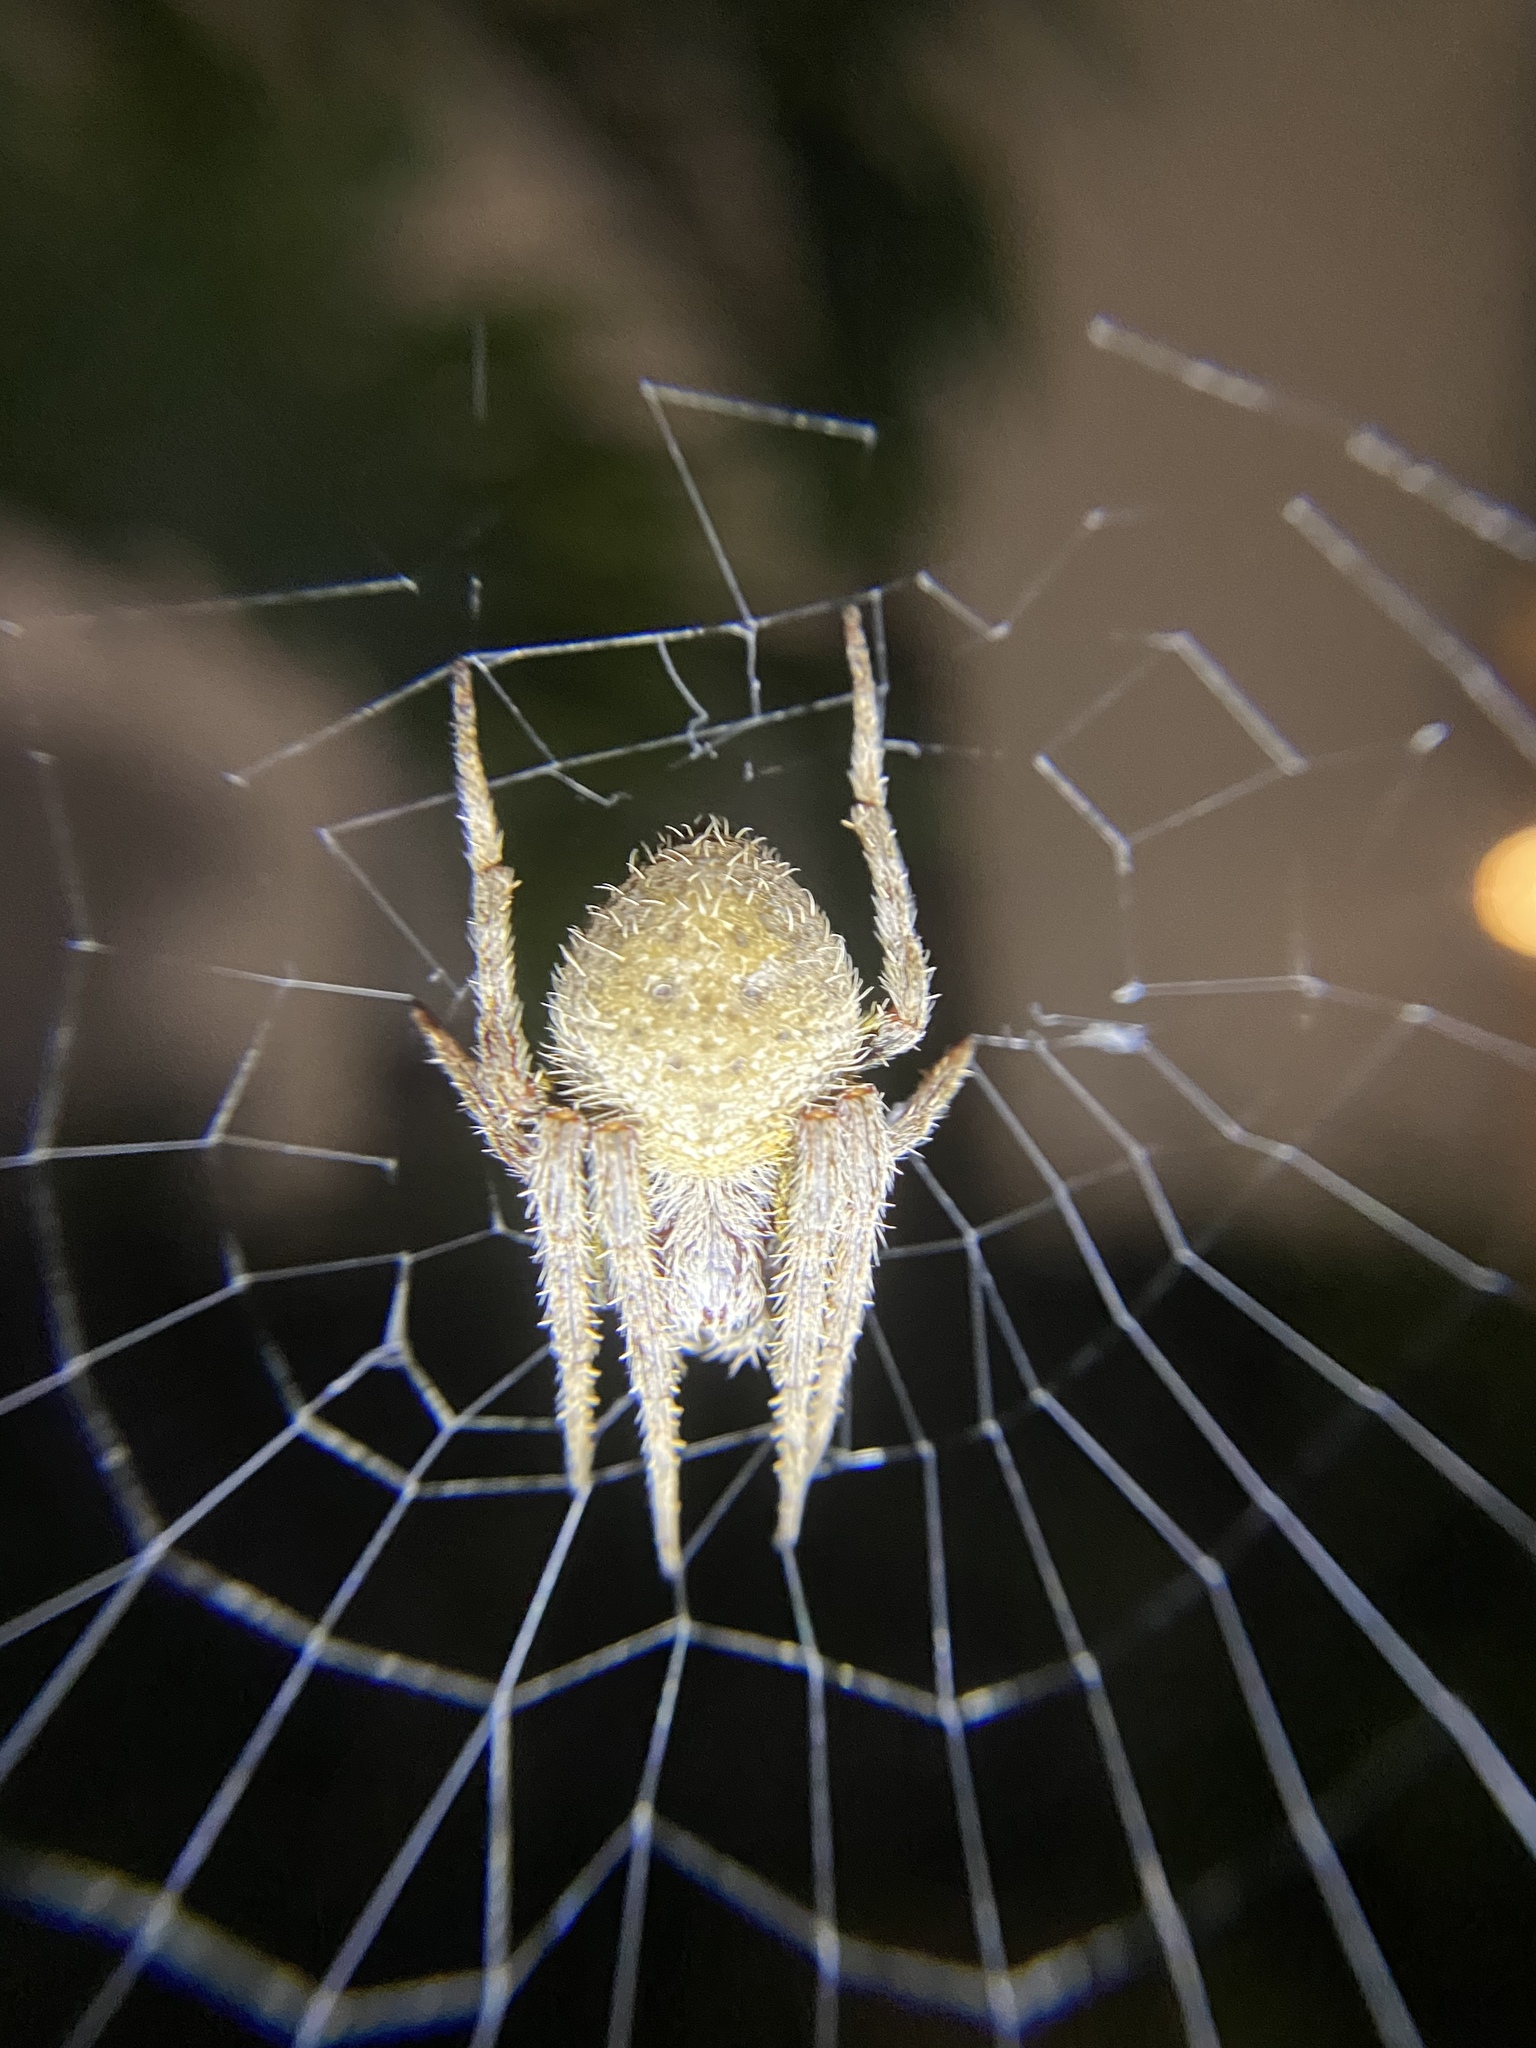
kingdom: Animalia
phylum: Arthropoda
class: Arachnida
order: Araneae
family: Araneidae
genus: Eriophora
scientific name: Eriophora ravilla
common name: Orb weavers
